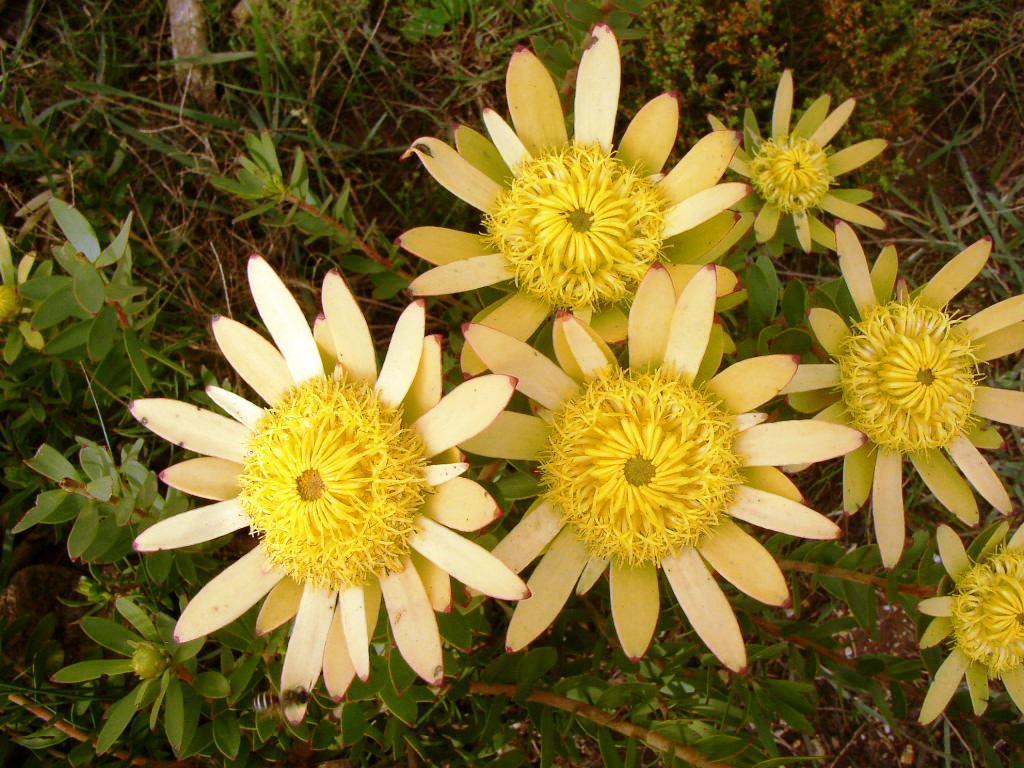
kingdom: Plantae
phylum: Tracheophyta
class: Magnoliopsida
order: Proteales
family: Proteaceae
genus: Leucadendron
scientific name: Leucadendron elimense
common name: Elim conebush
